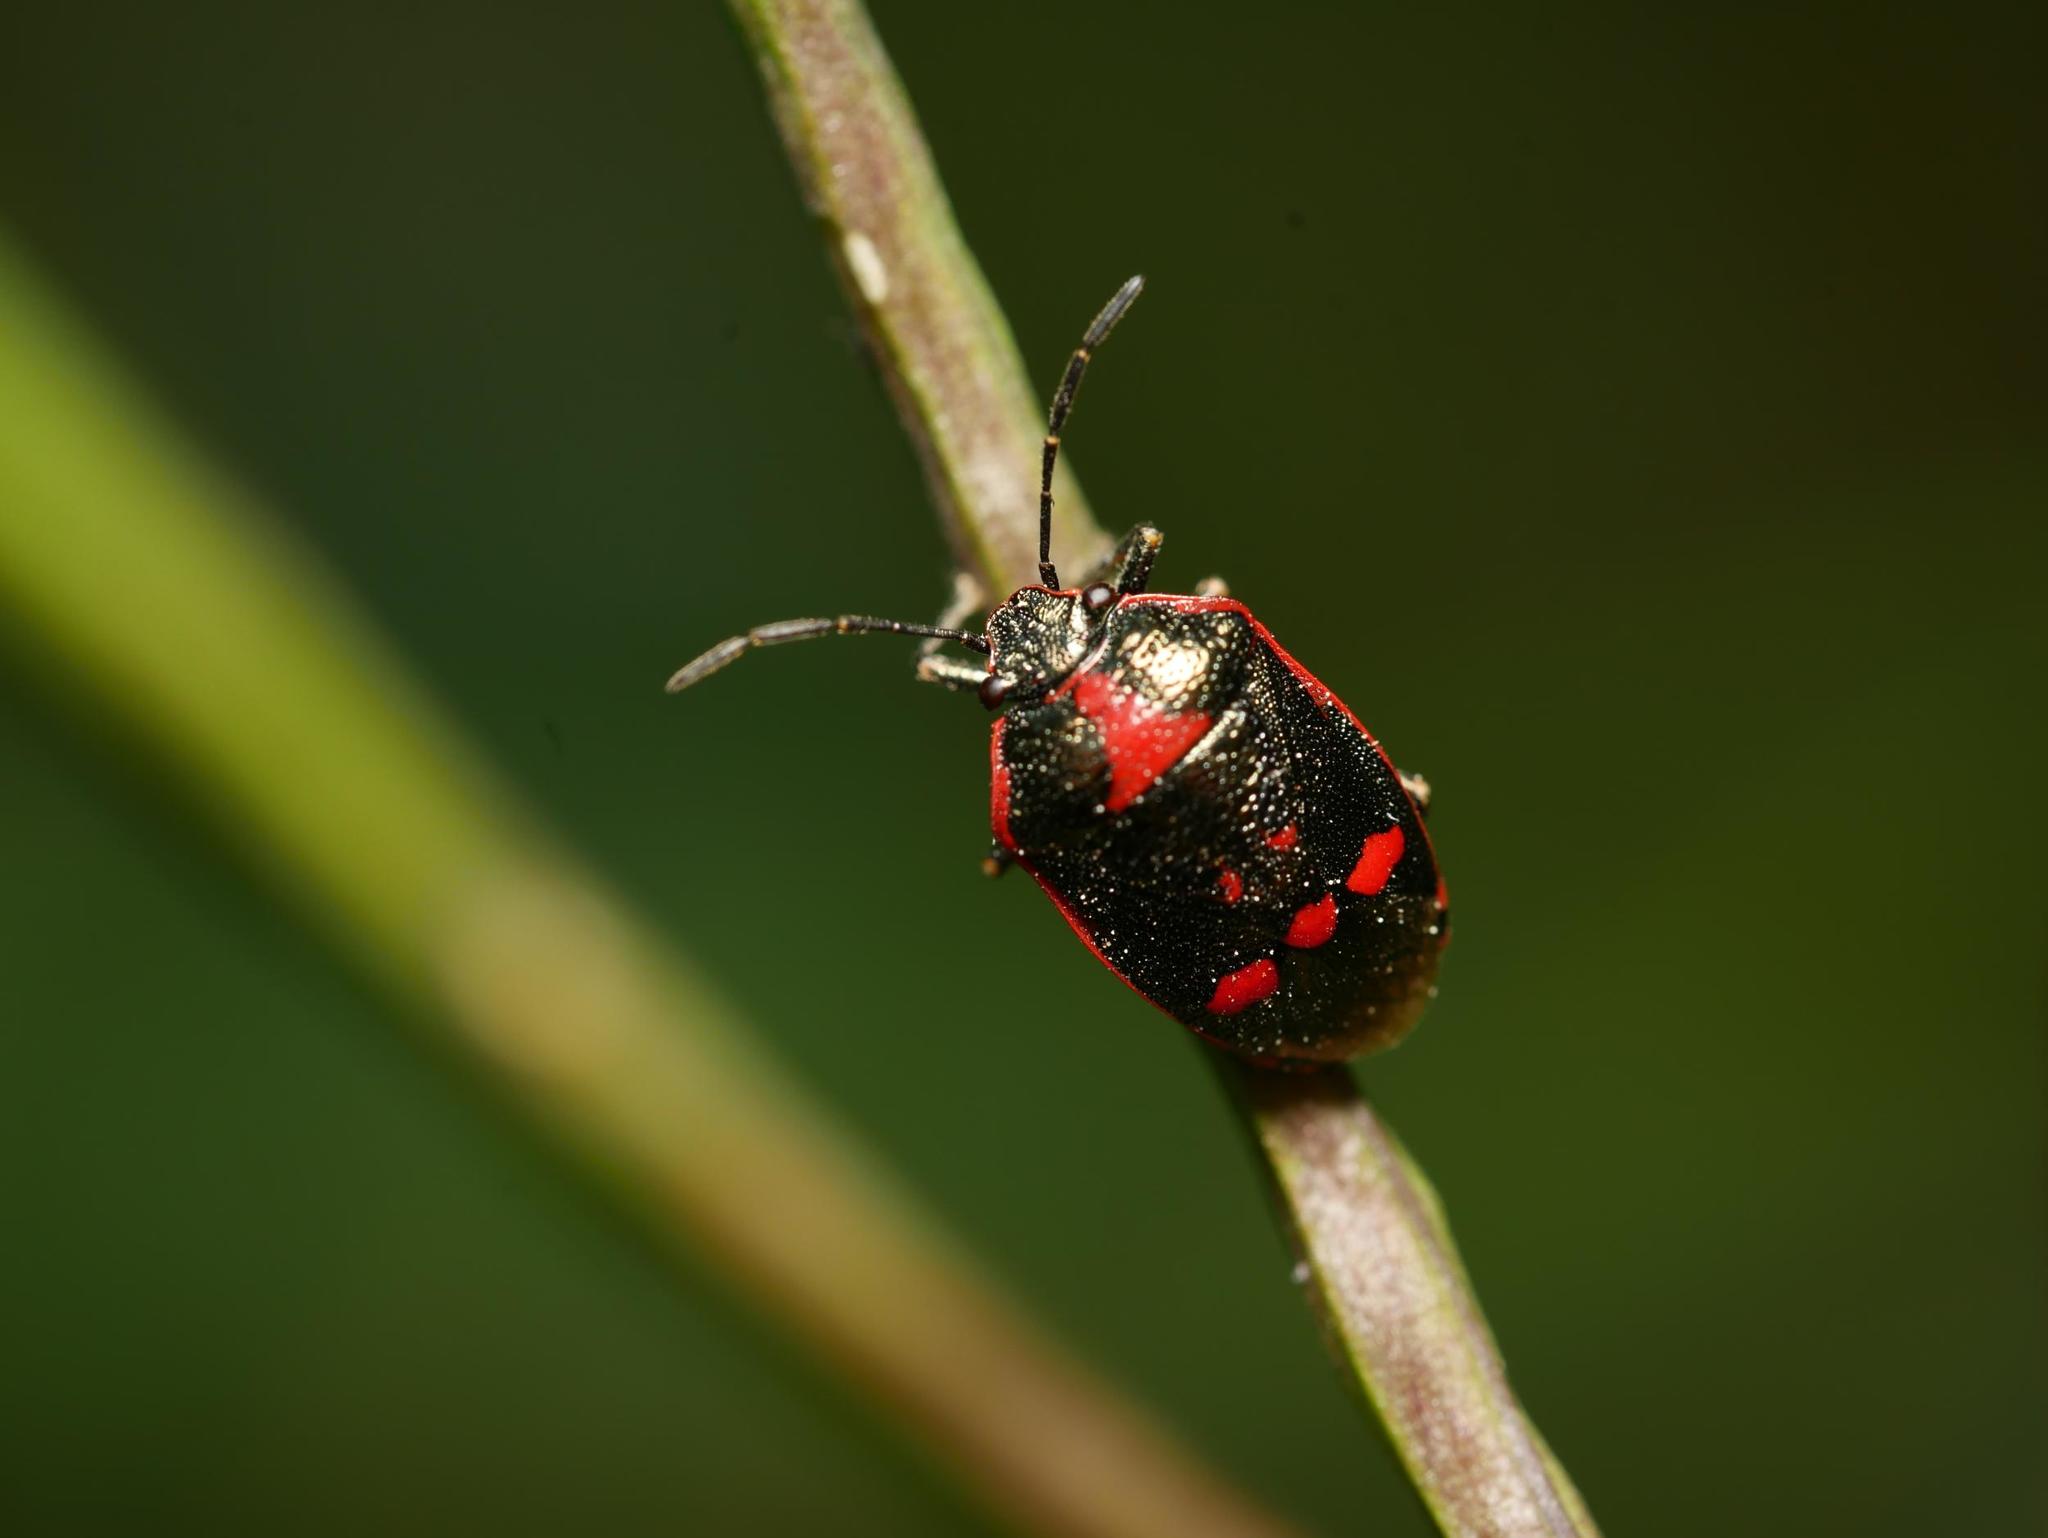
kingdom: Animalia
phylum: Arthropoda
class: Insecta
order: Hemiptera
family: Pentatomidae
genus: Eurydema
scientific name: Eurydema oleracea
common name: Cabbage bug
